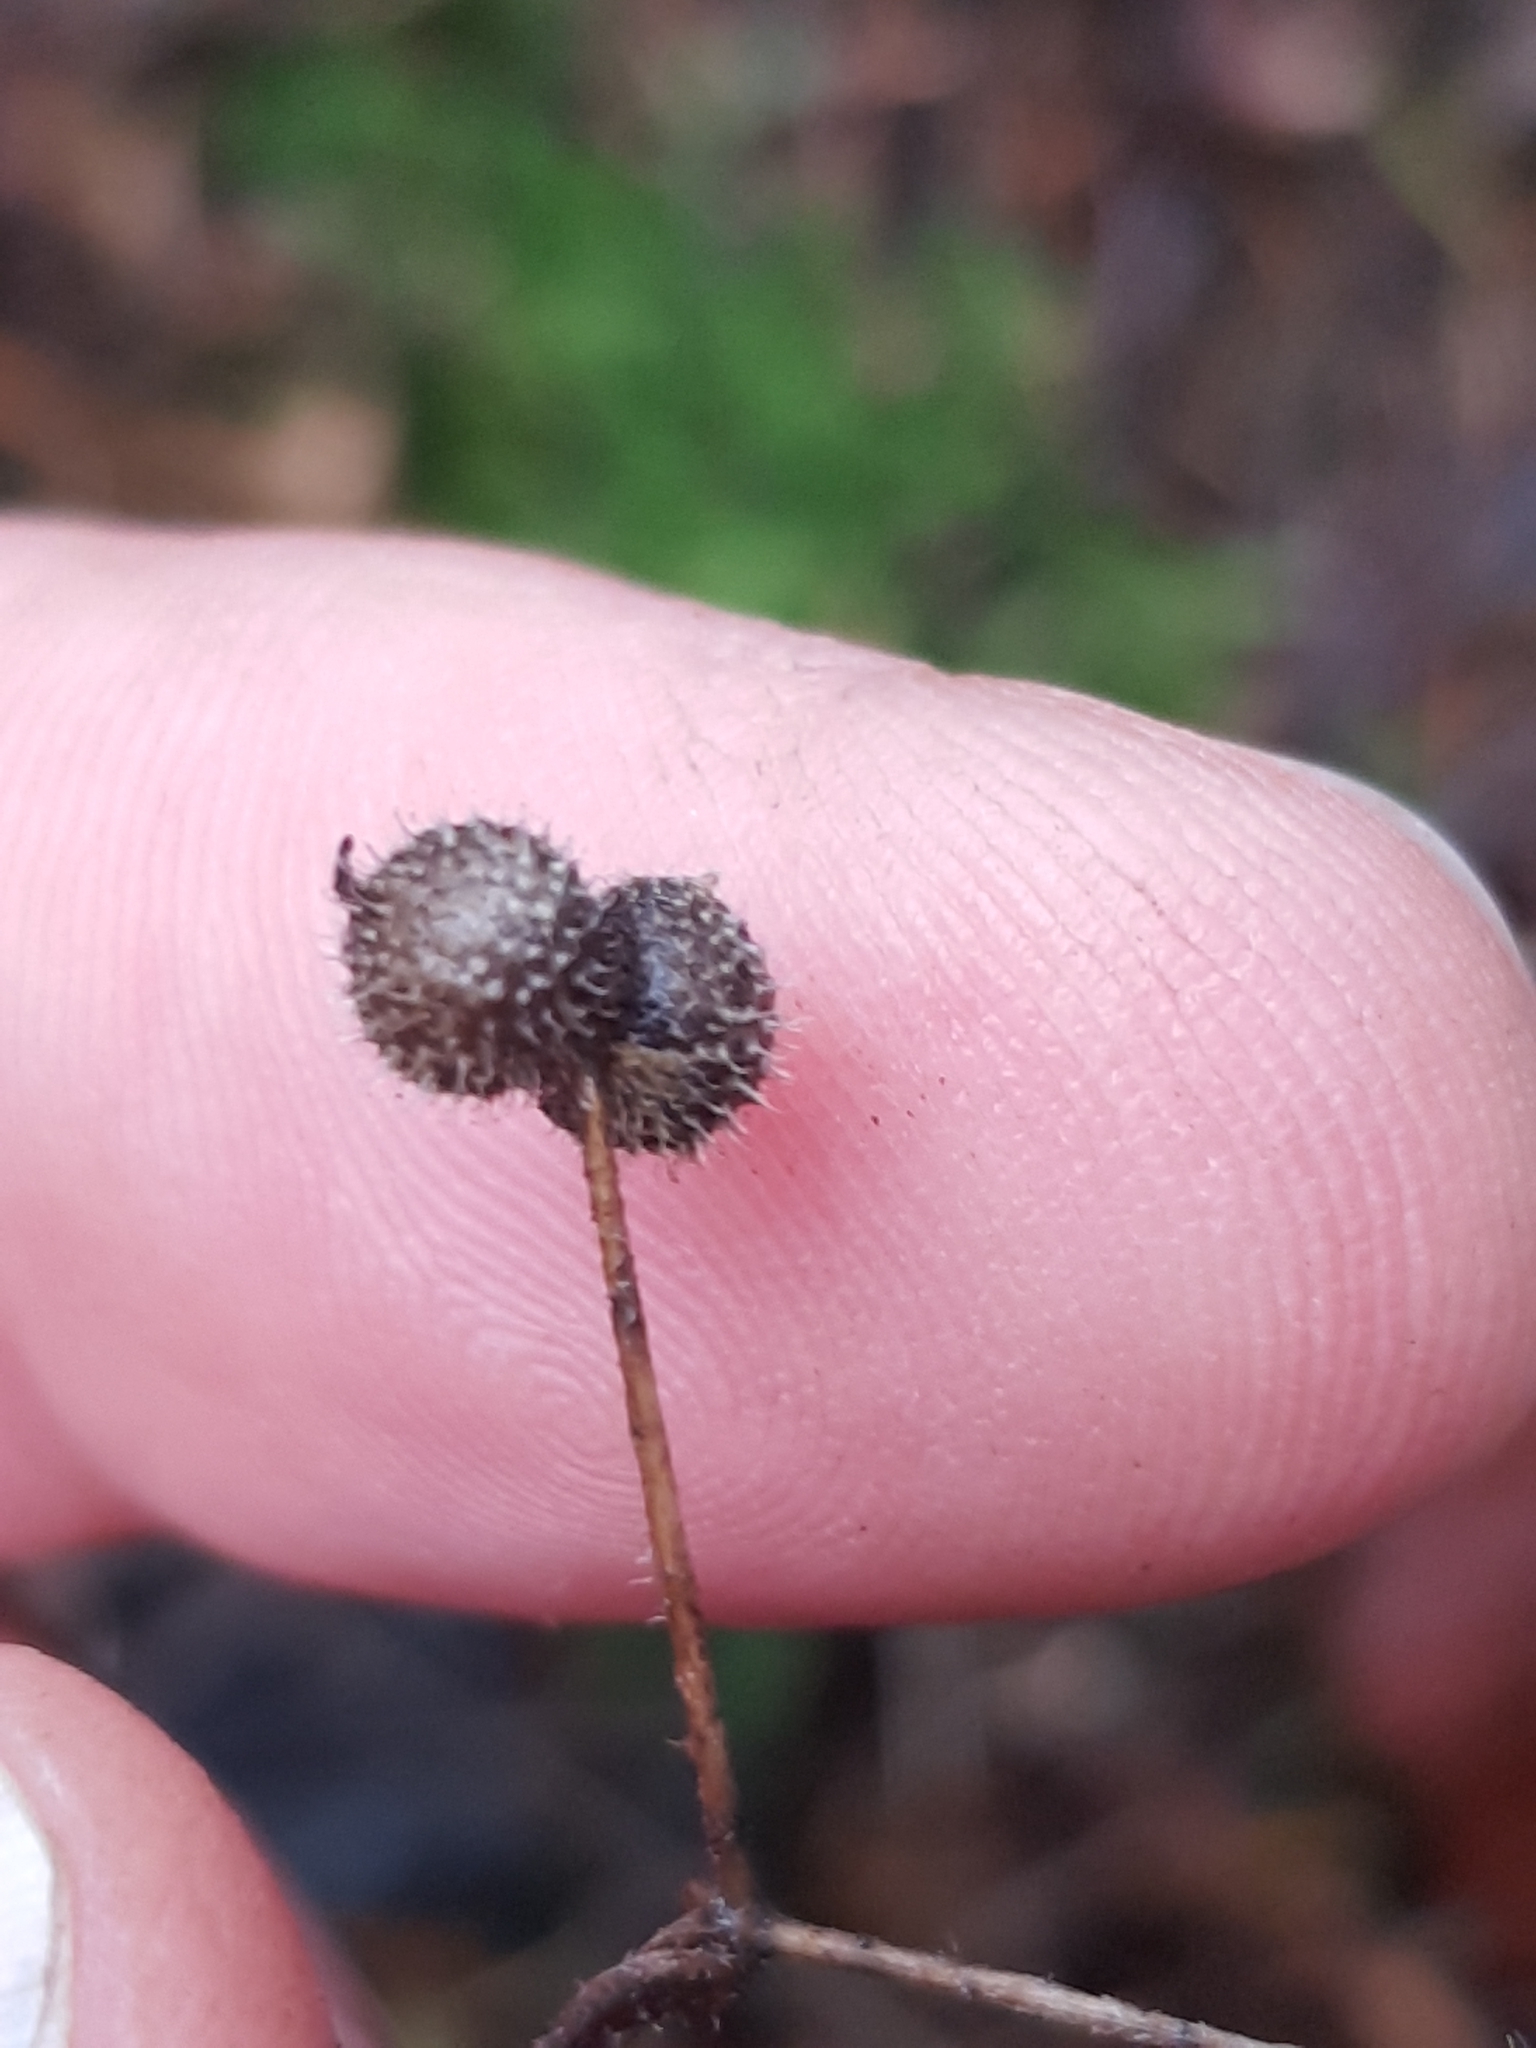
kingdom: Plantae
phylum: Tracheophyta
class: Magnoliopsida
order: Gentianales
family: Rubiaceae
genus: Galium
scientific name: Galium
